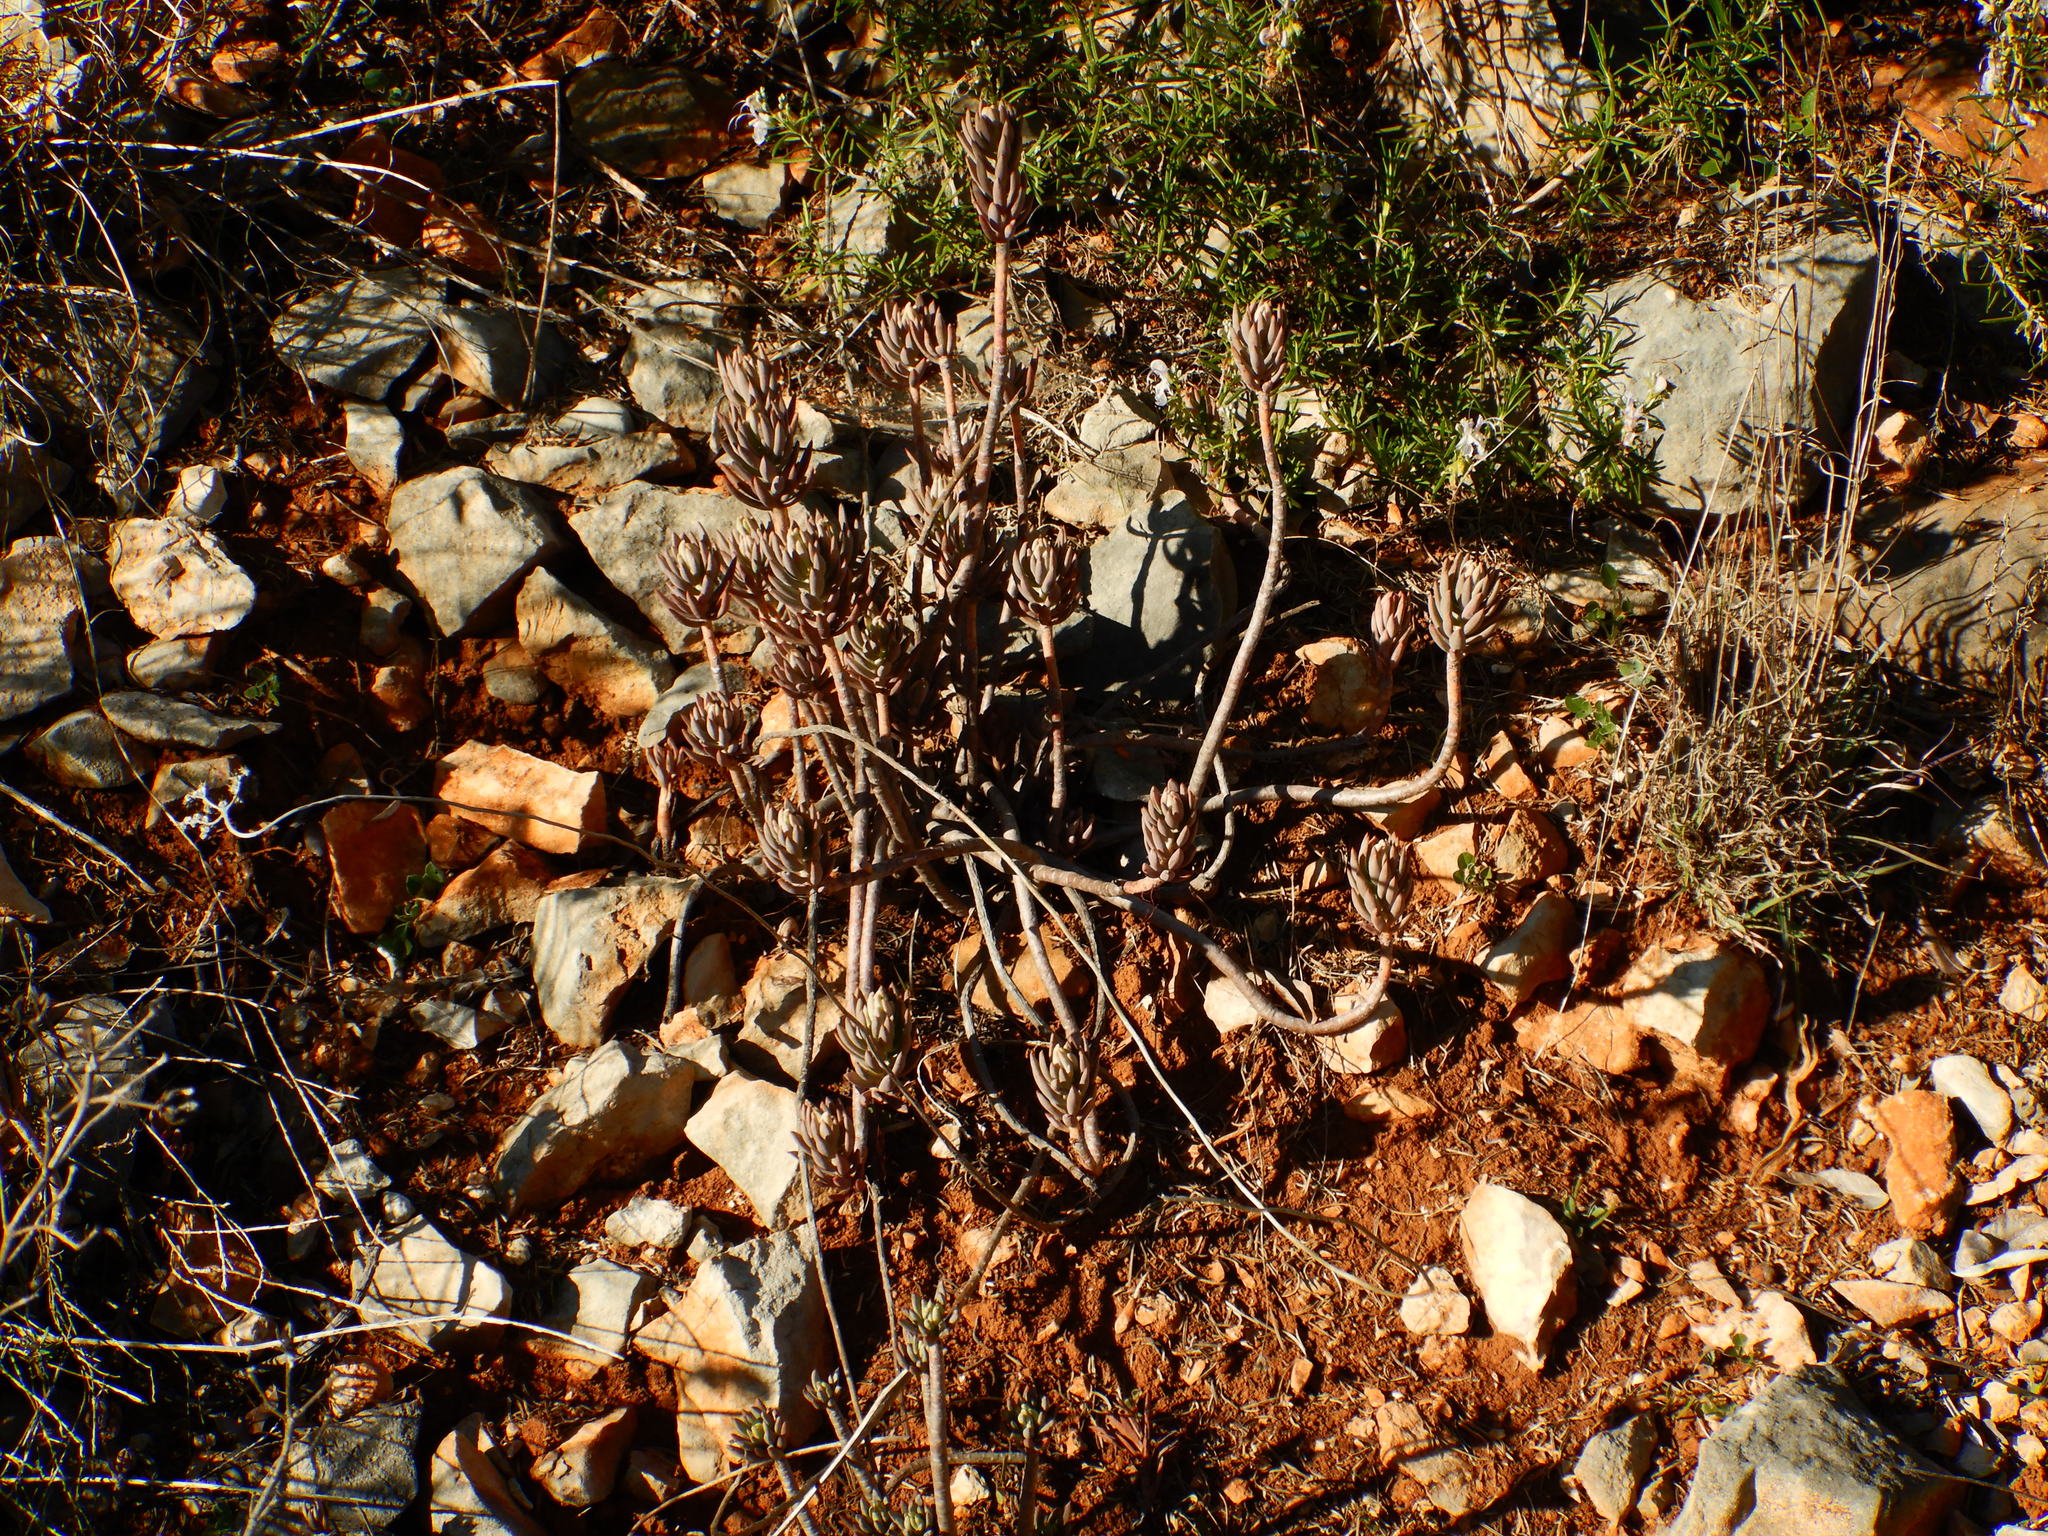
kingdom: Plantae
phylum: Tracheophyta
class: Magnoliopsida
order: Saxifragales
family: Crassulaceae
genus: Petrosedum
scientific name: Petrosedum sediforme
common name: Pale stonecrop
